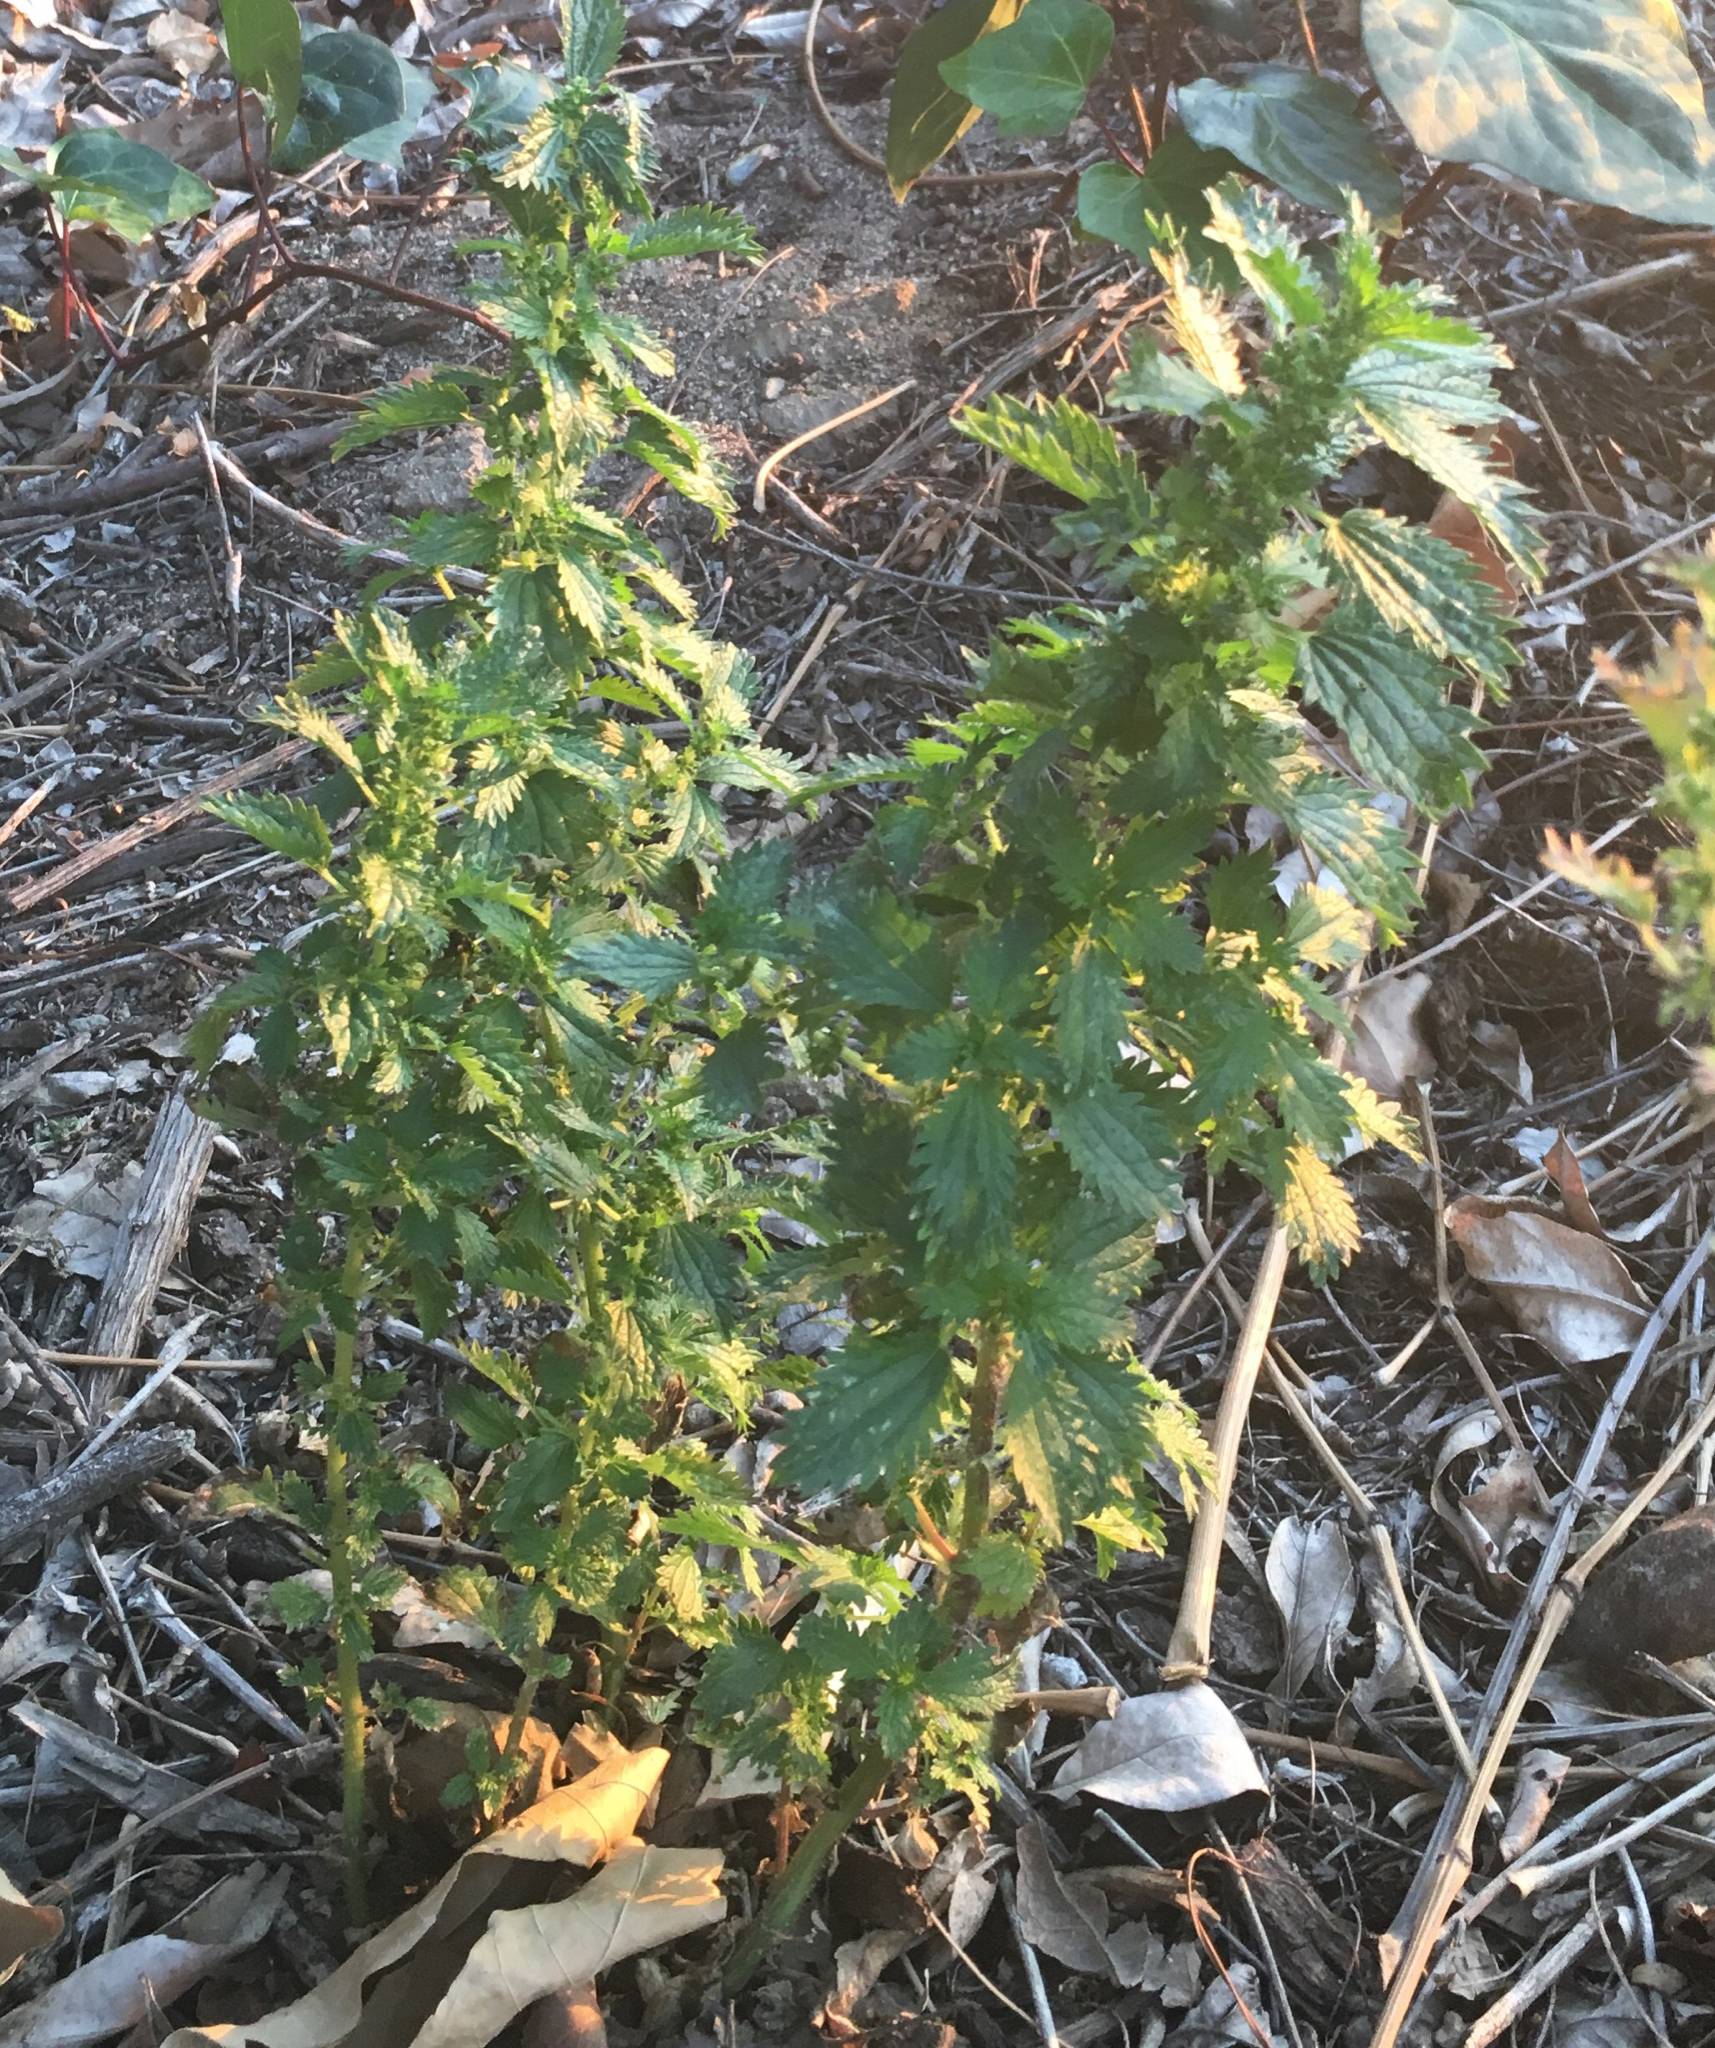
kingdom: Plantae
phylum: Tracheophyta
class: Magnoliopsida
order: Rosales
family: Urticaceae
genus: Urtica
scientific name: Urtica urens
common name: Dwarf nettle
